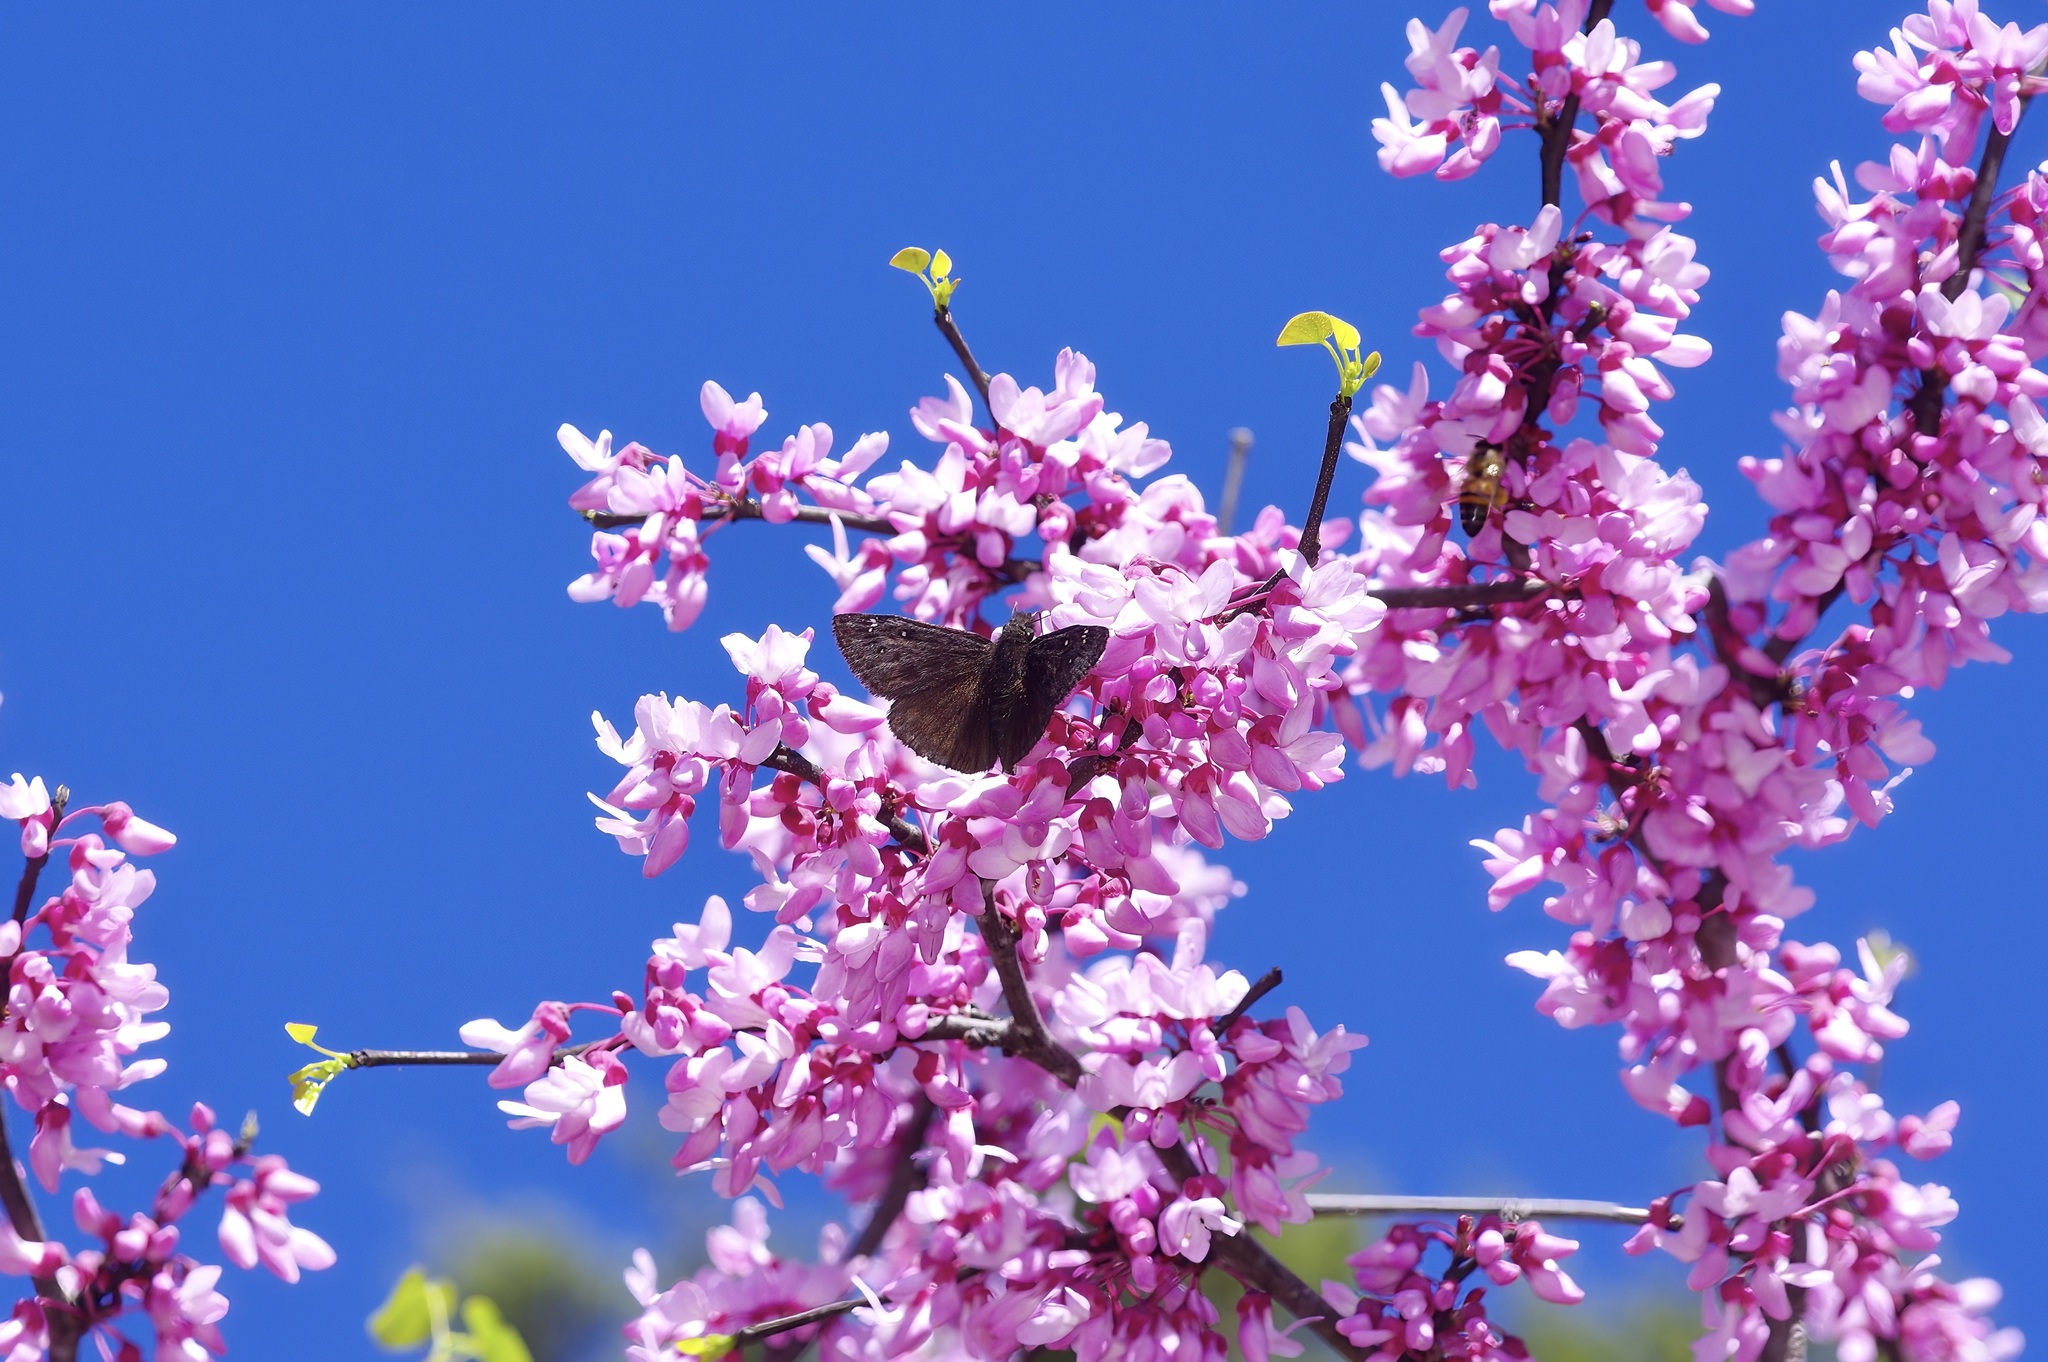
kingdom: Animalia
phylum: Arthropoda
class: Insecta
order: Lepidoptera
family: Hesperiidae
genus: Erynnis
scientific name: Erynnis juvenalis
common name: Juvenal's duskywing
